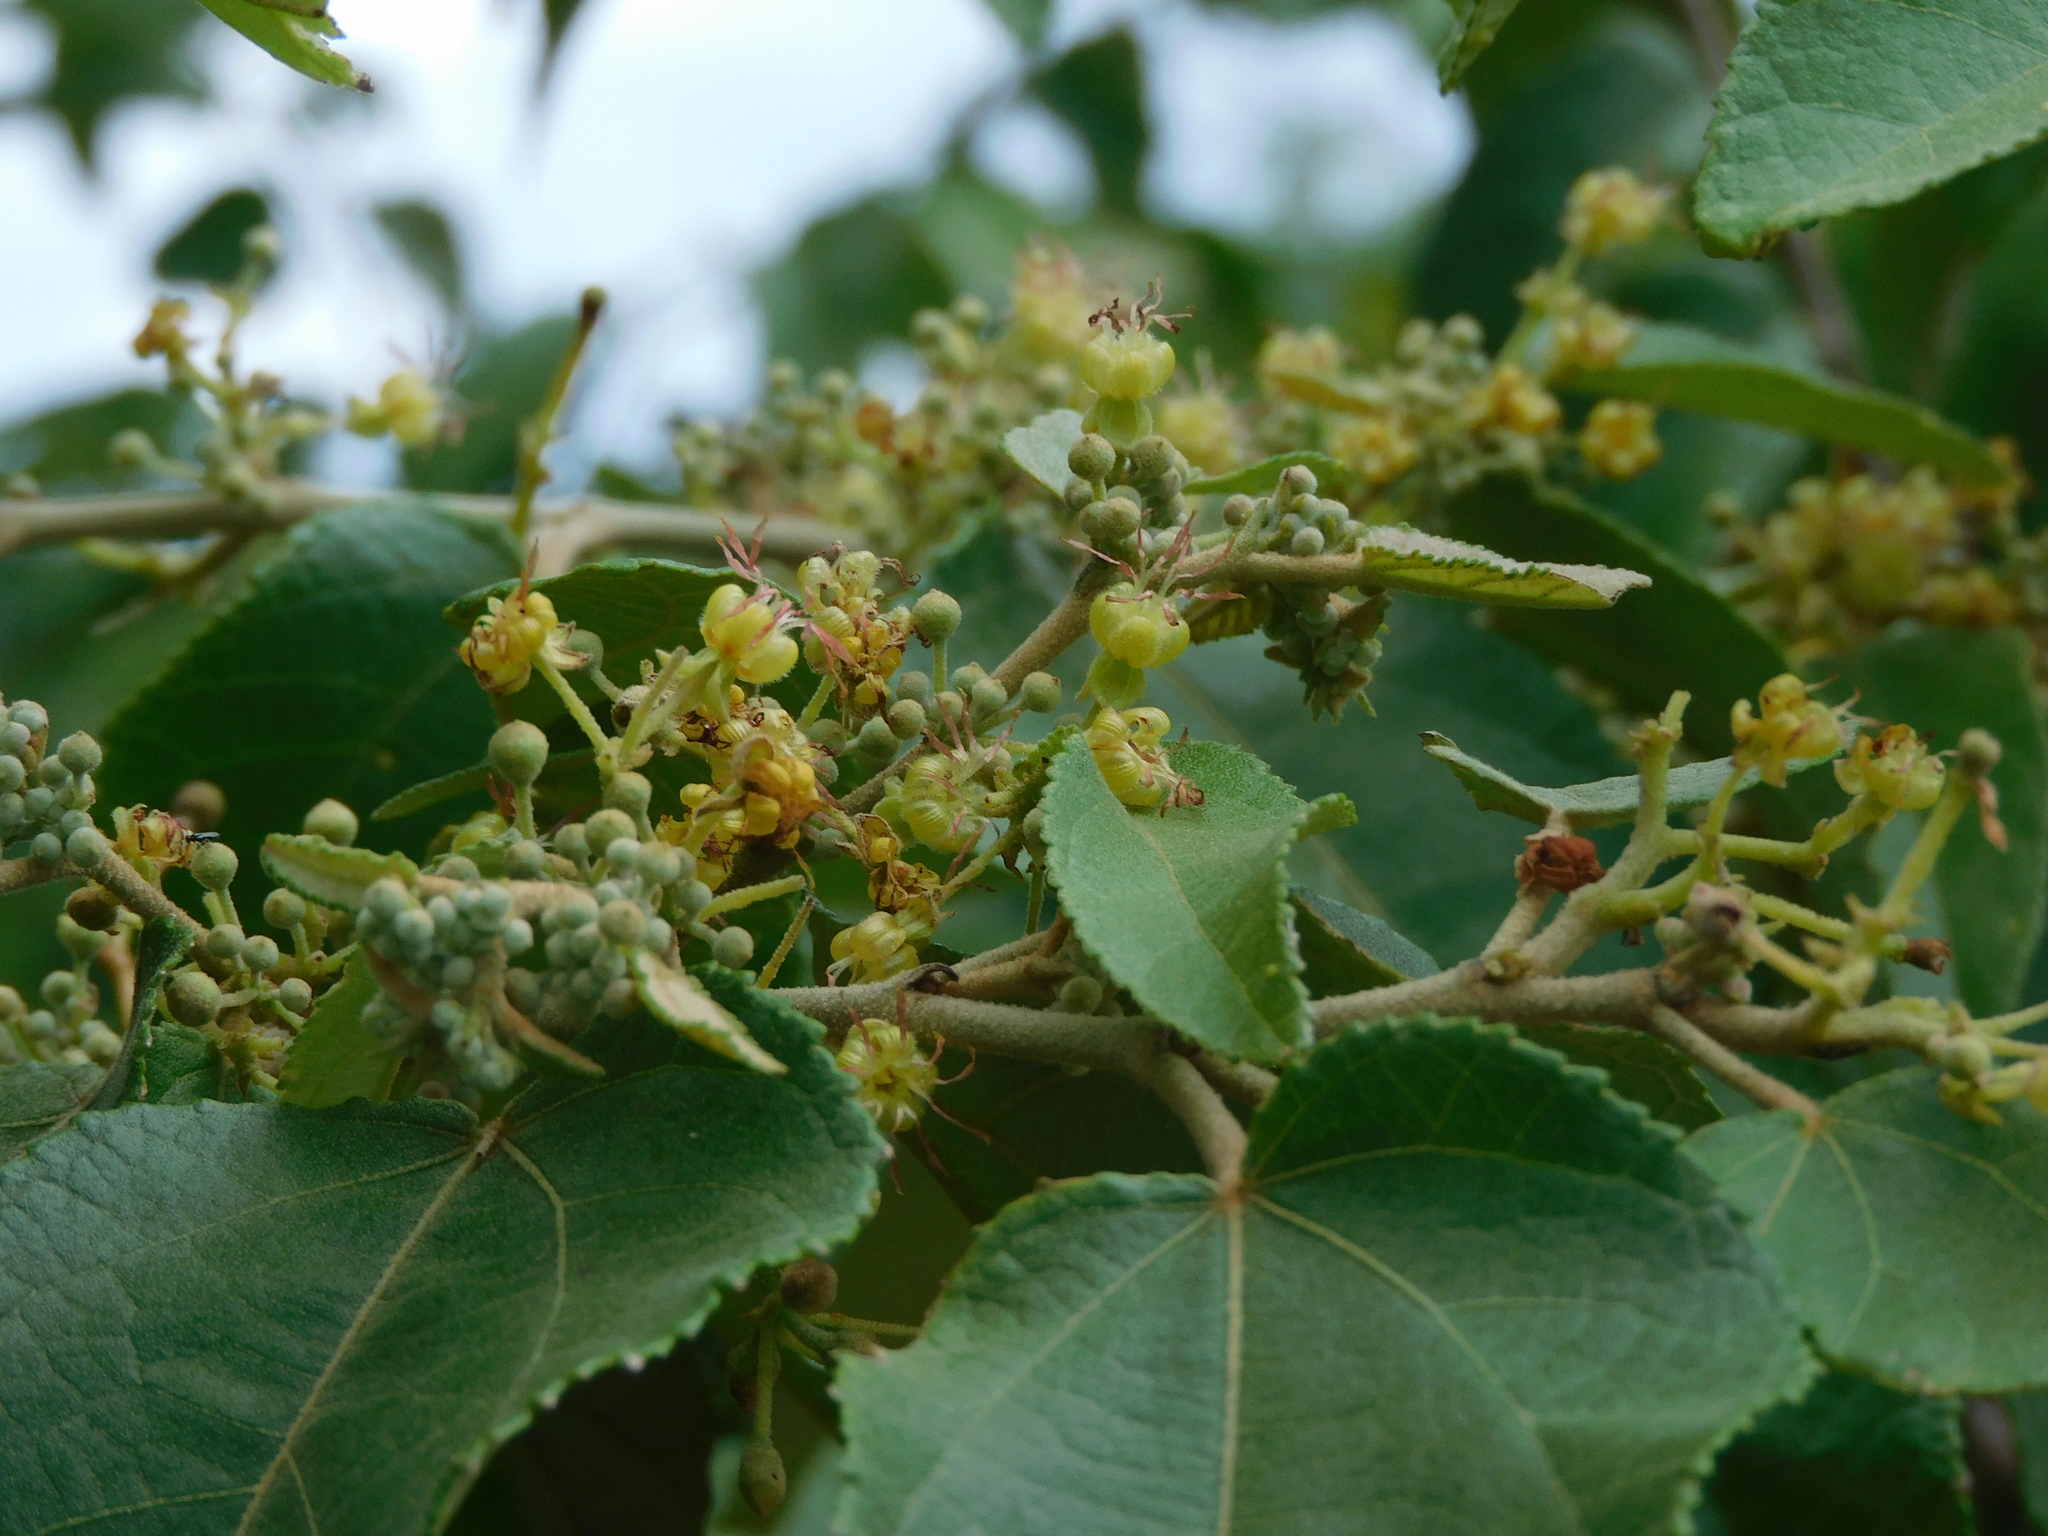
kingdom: Plantae
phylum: Tracheophyta
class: Magnoliopsida
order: Malvales
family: Malvaceae
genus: Guazuma
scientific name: Guazuma ulmifolia
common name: Bastard-cedar
